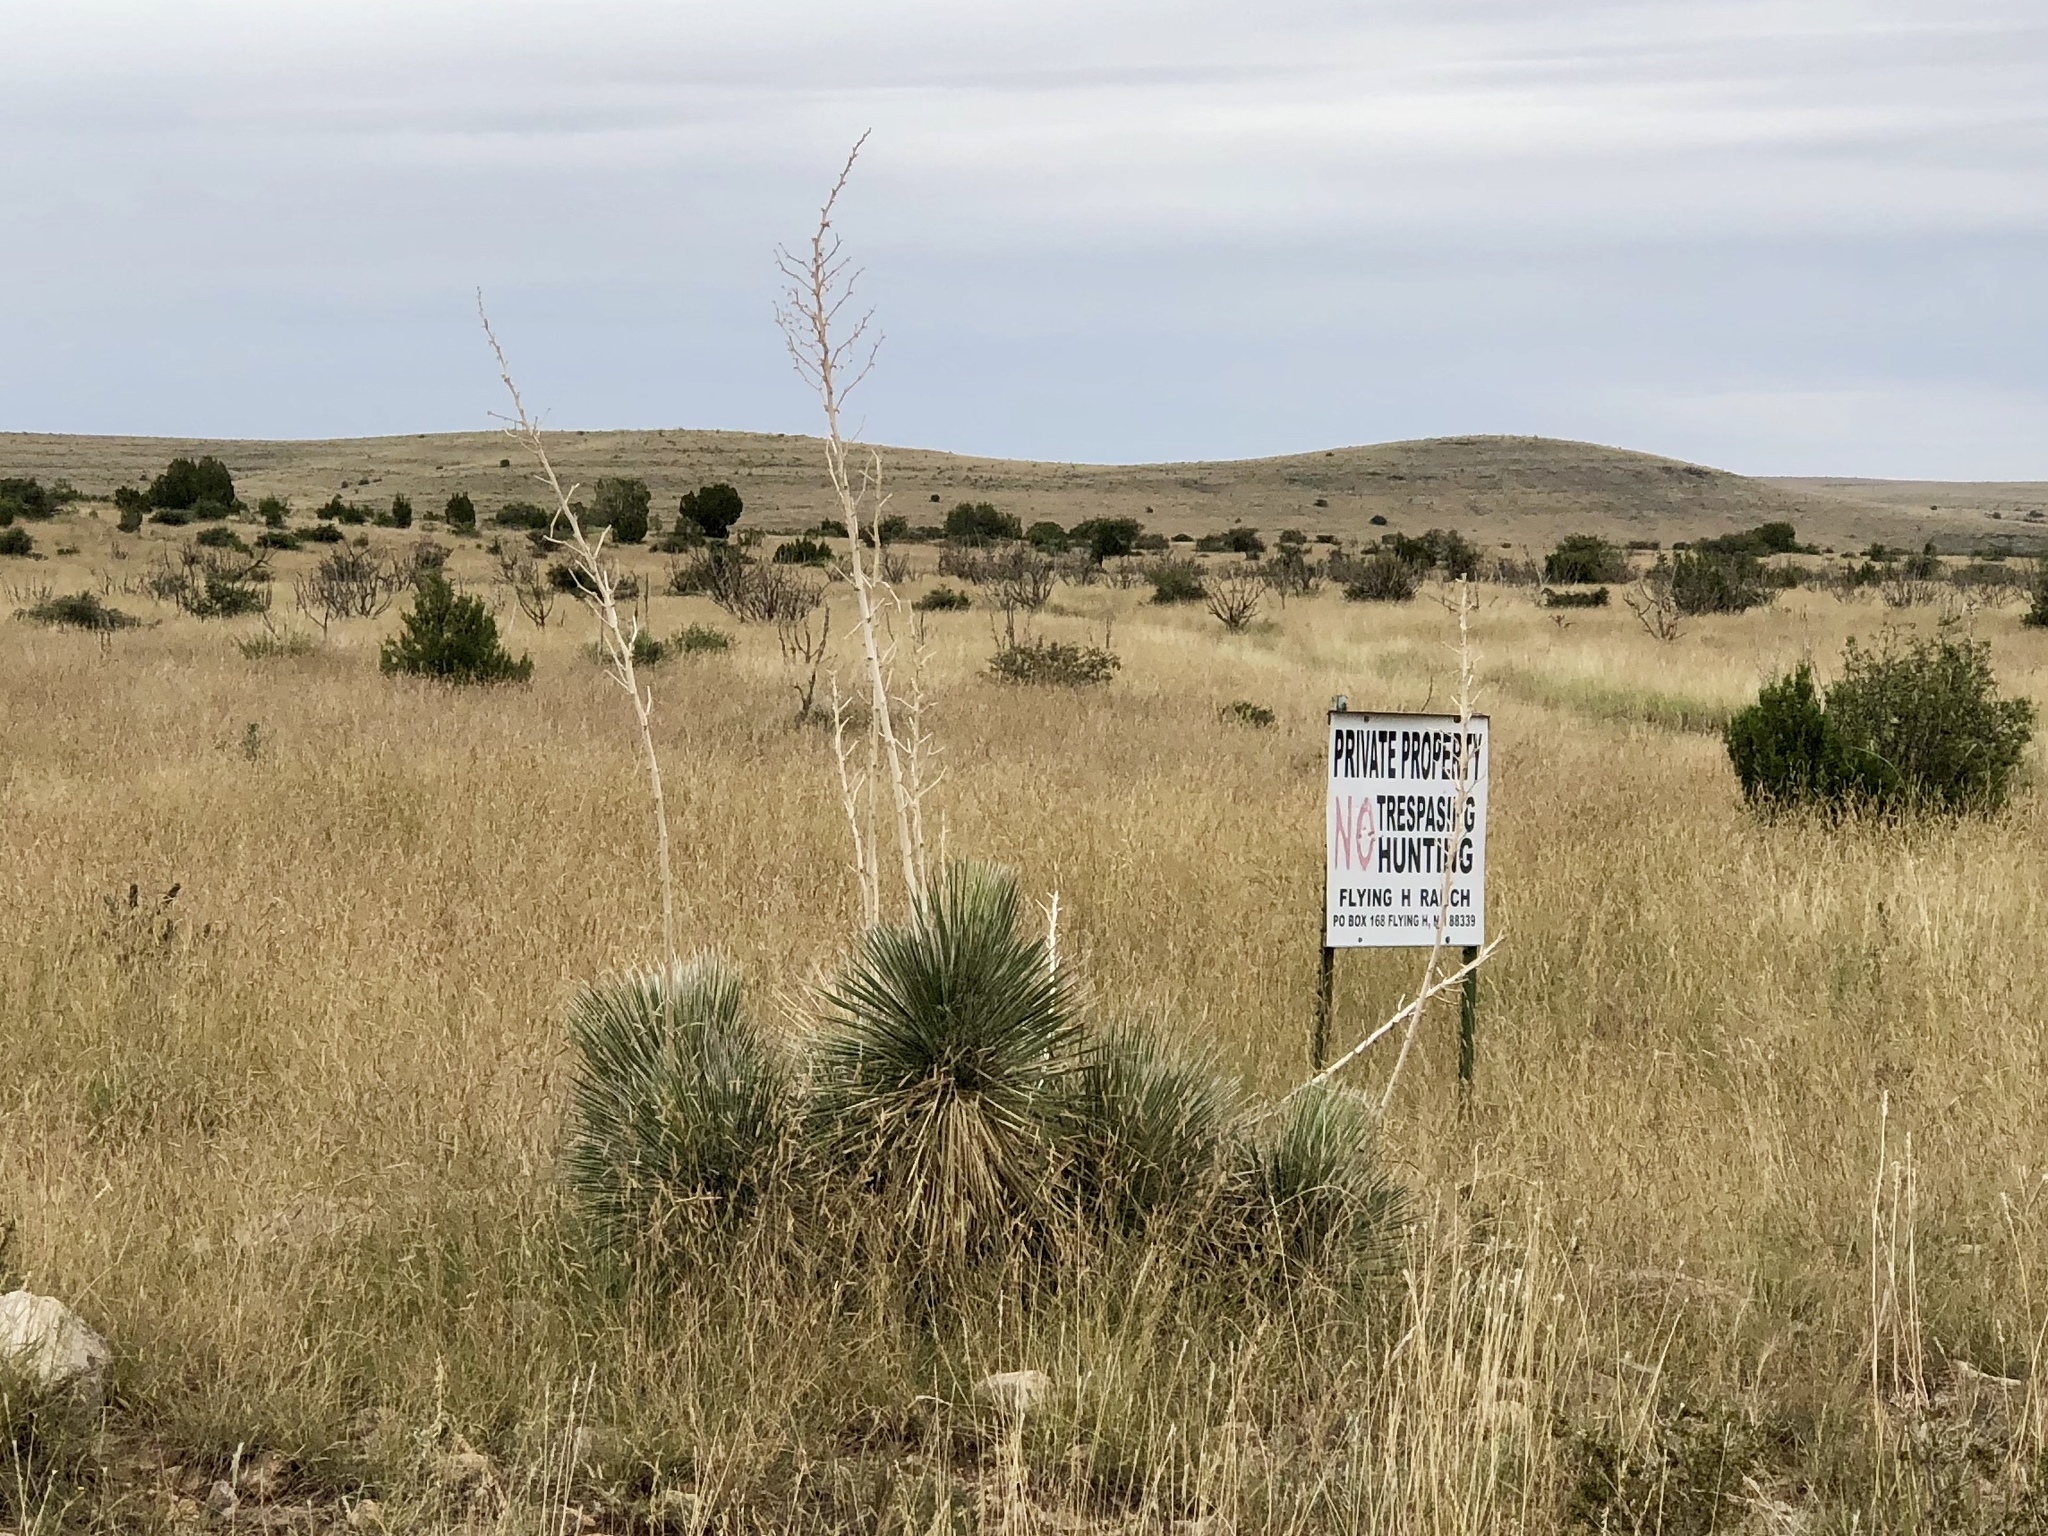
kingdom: Plantae
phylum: Tracheophyta
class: Liliopsida
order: Asparagales
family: Asparagaceae
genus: Yucca
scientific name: Yucca elata
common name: Palmella
